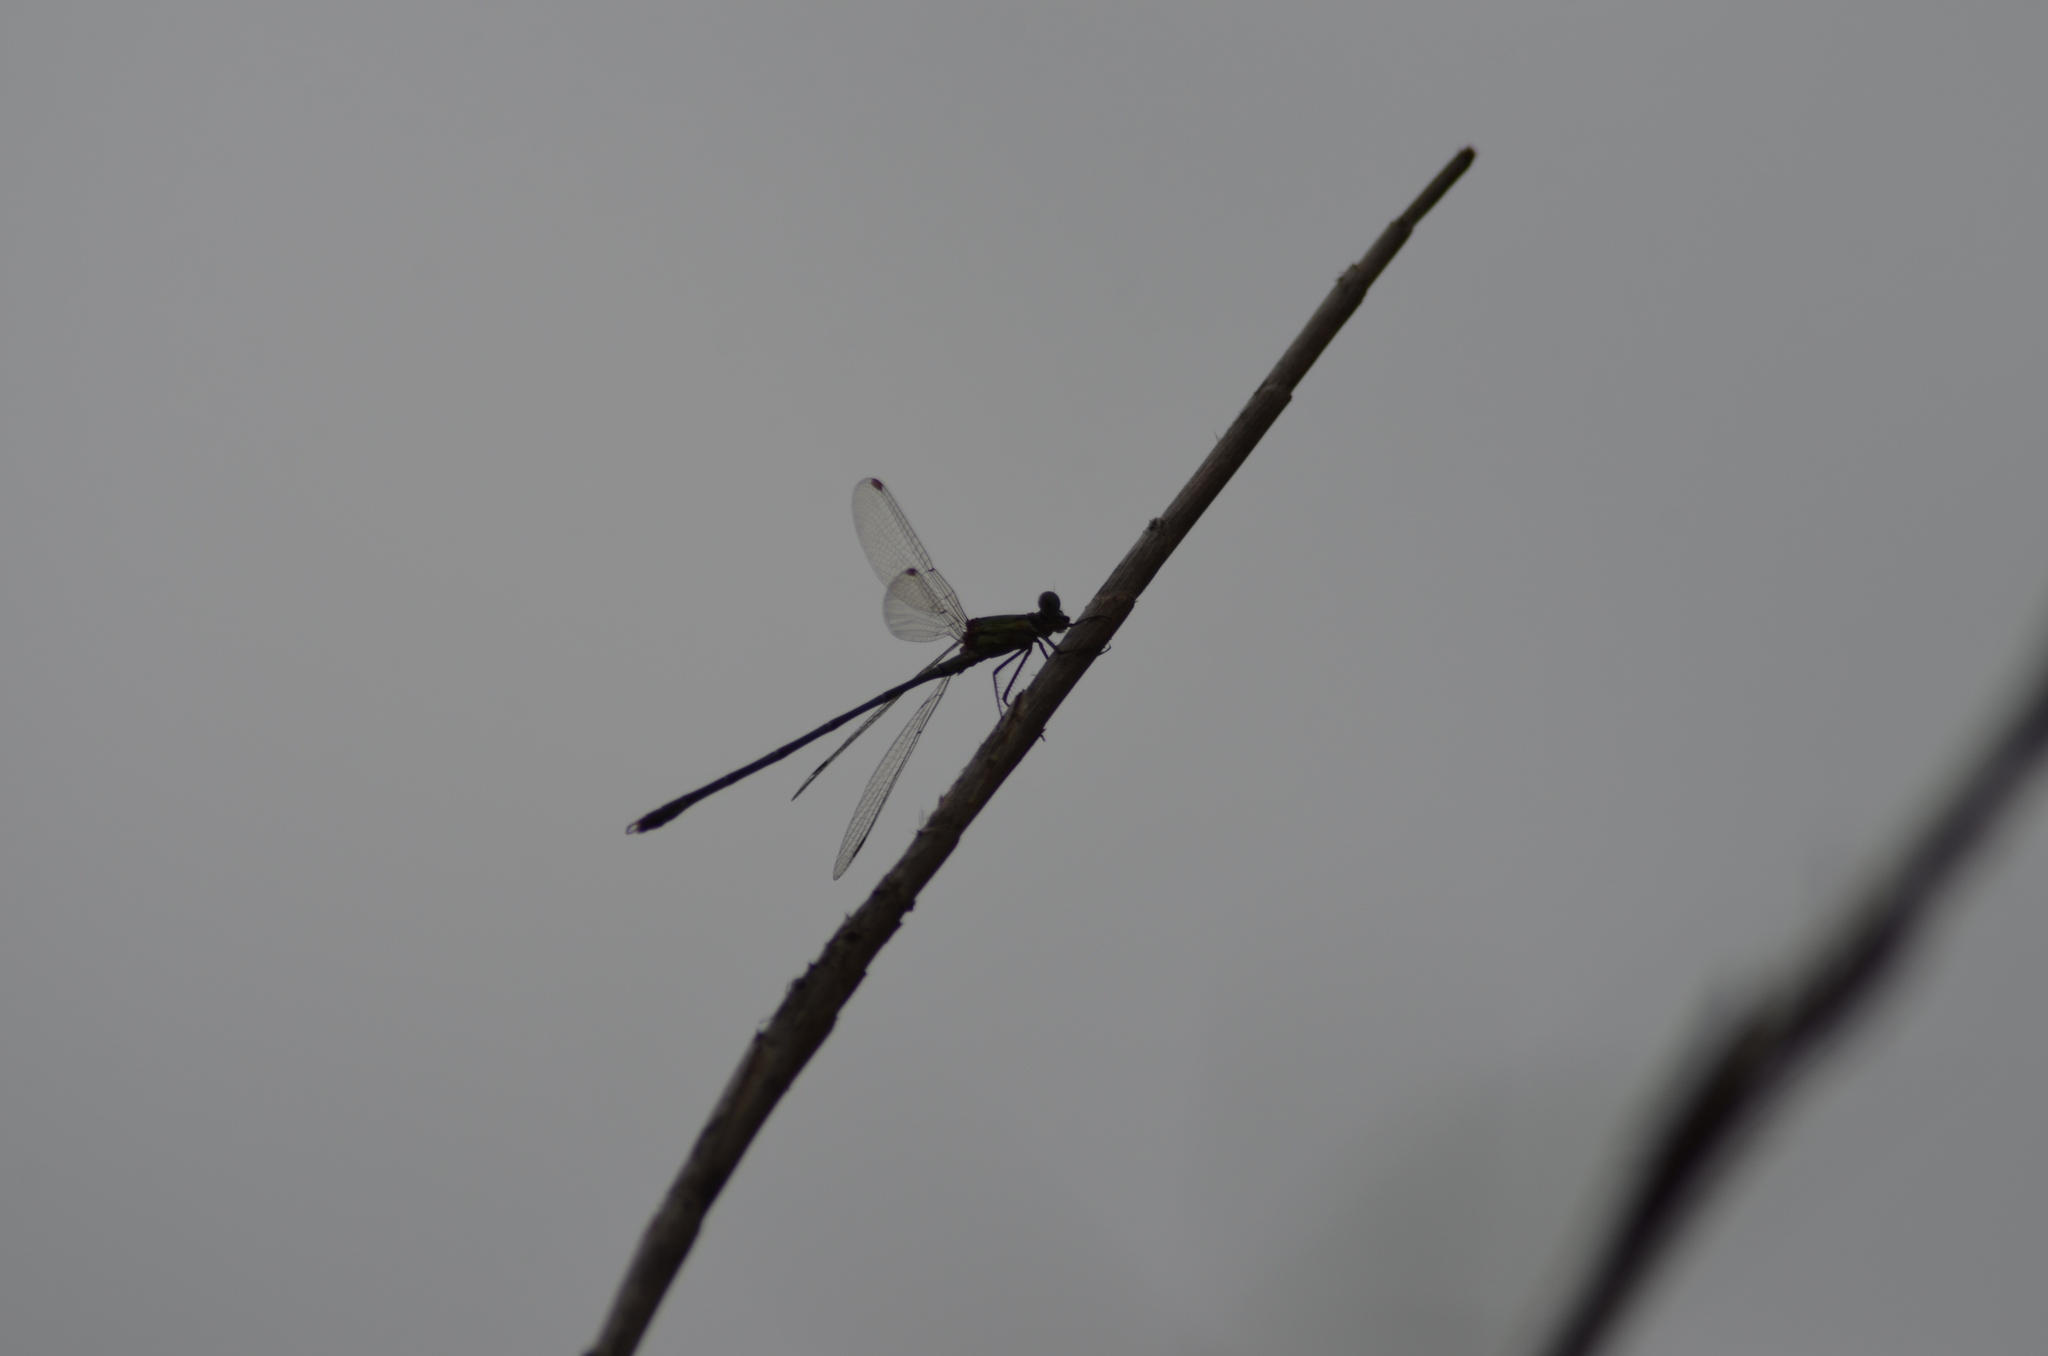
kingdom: Animalia
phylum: Arthropoda
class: Insecta
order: Odonata
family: Lestidae
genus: Chalcolestes
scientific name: Chalcolestes viridis
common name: Green emerald damselfly
